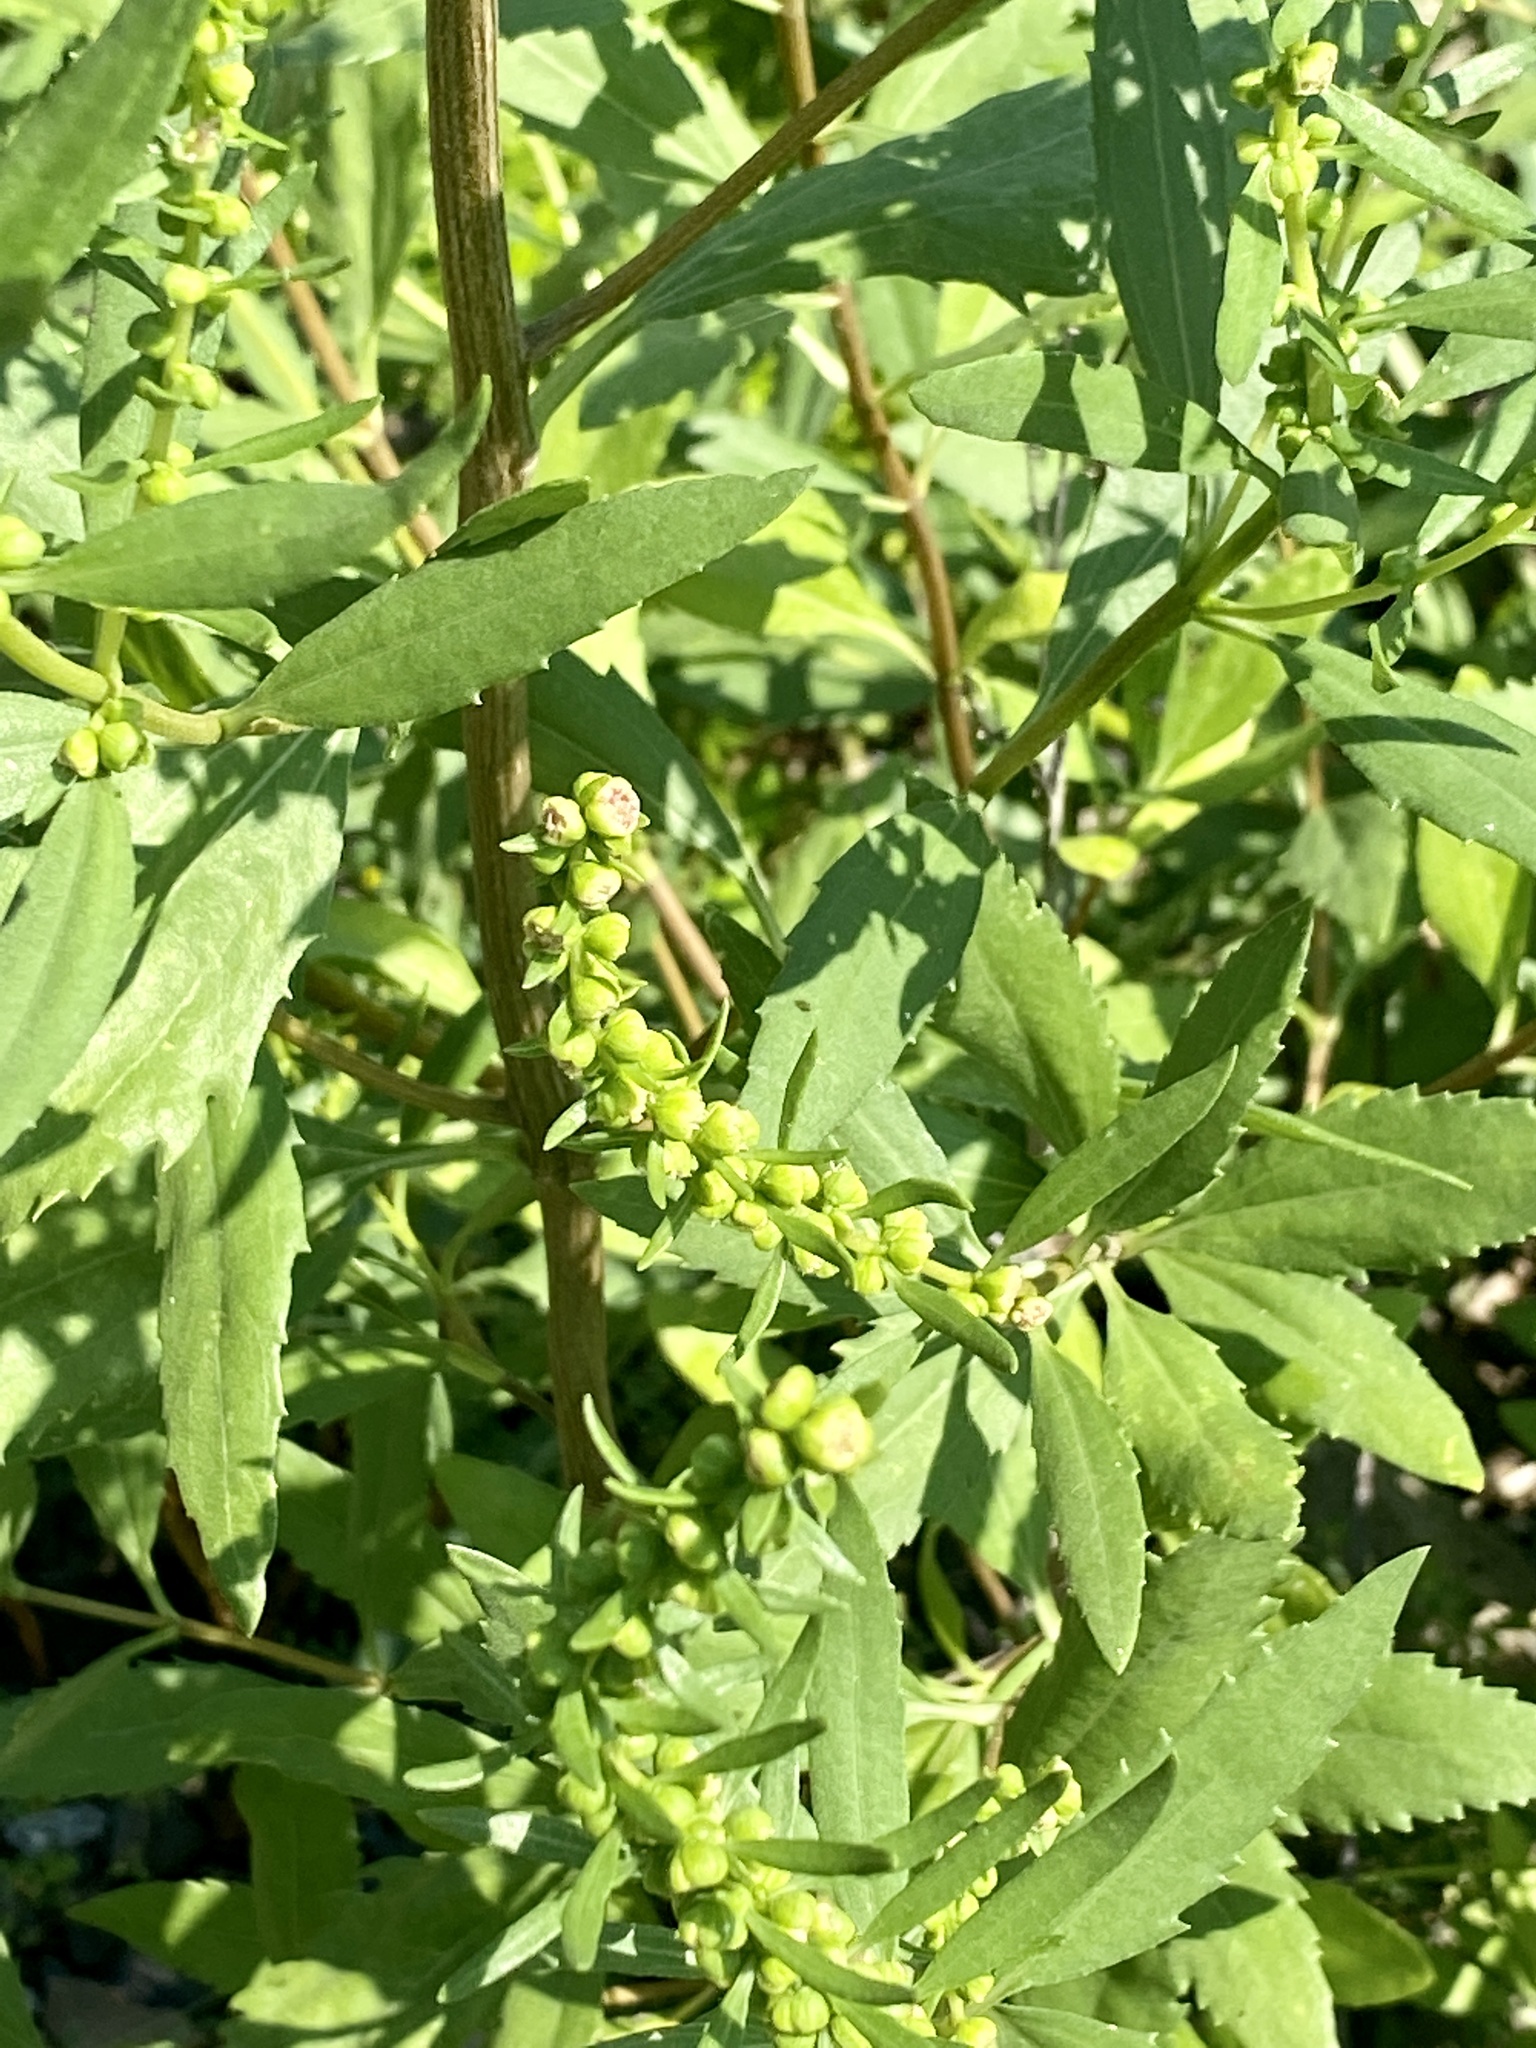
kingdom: Plantae
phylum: Tracheophyta
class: Magnoliopsida
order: Asterales
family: Asteraceae
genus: Iva
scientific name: Iva frutescens
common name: Big-leaved marsh-elder
